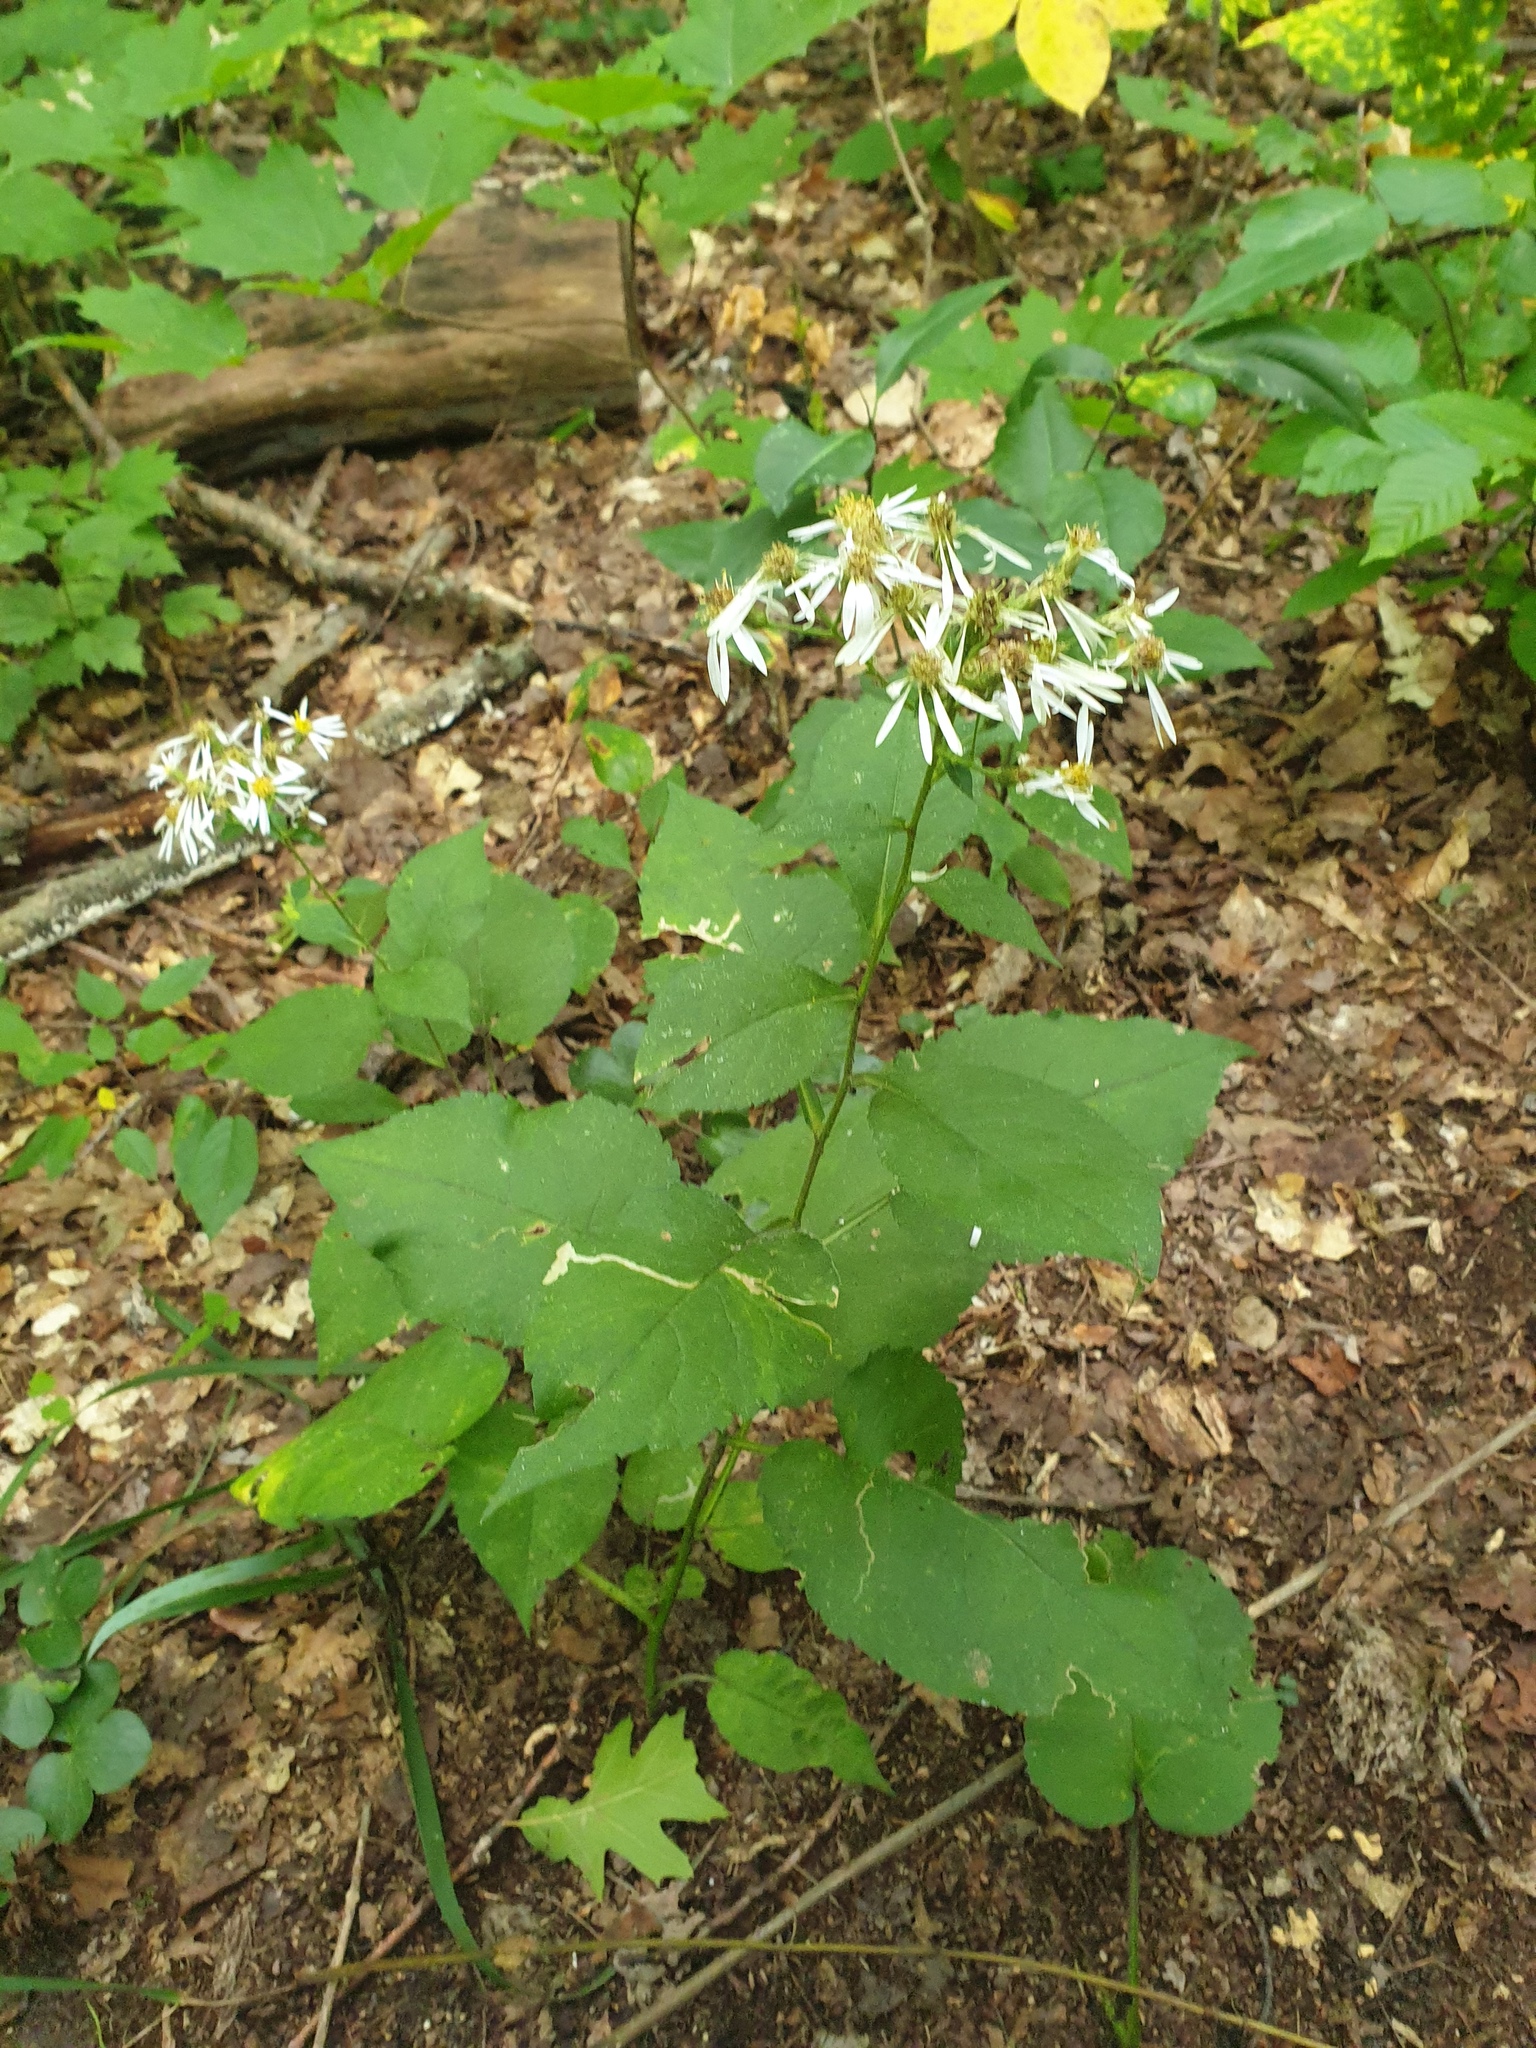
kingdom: Plantae
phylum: Tracheophyta
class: Magnoliopsida
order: Asterales
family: Asteraceae
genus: Eurybia
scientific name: Eurybia macrophylla
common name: Big-leaved aster
